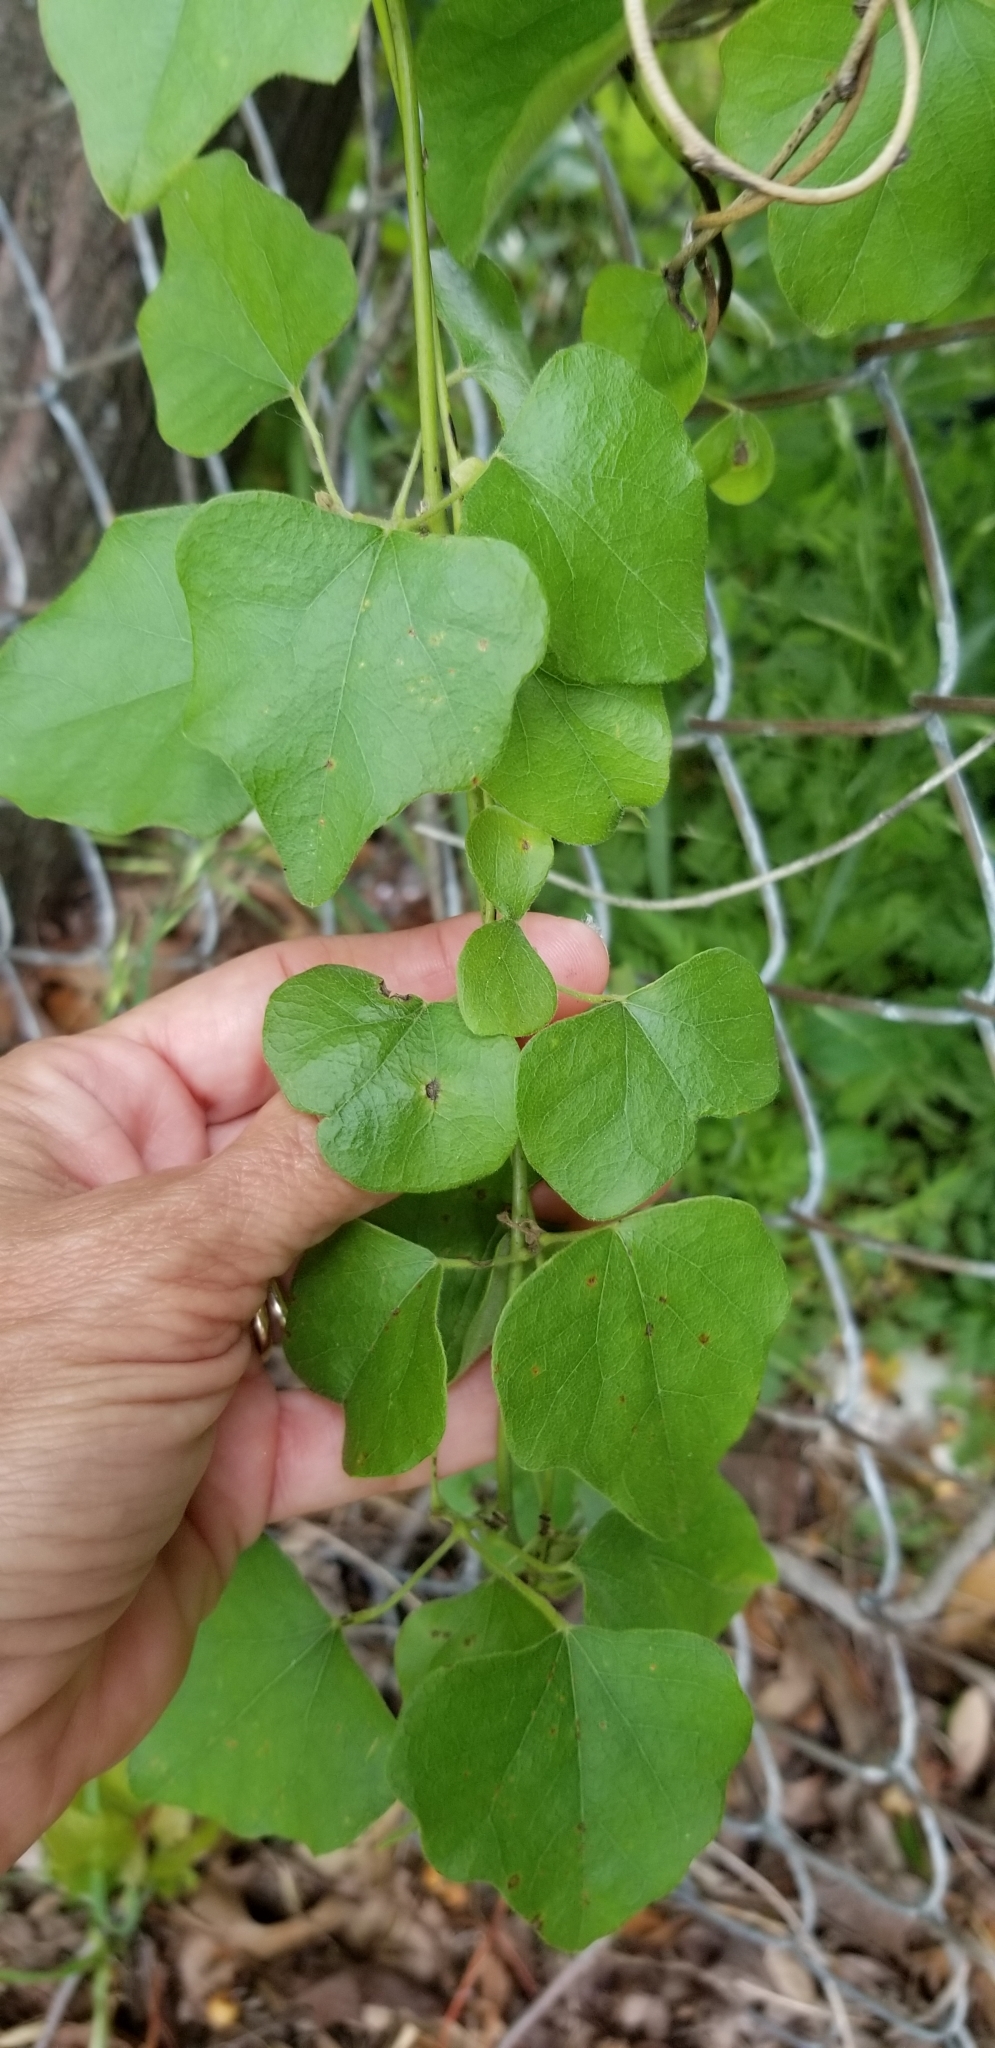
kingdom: Plantae
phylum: Tracheophyta
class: Magnoliopsida
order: Ranunculales
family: Menispermaceae
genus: Cocculus
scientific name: Cocculus carolinus
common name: Carolina moonseed
